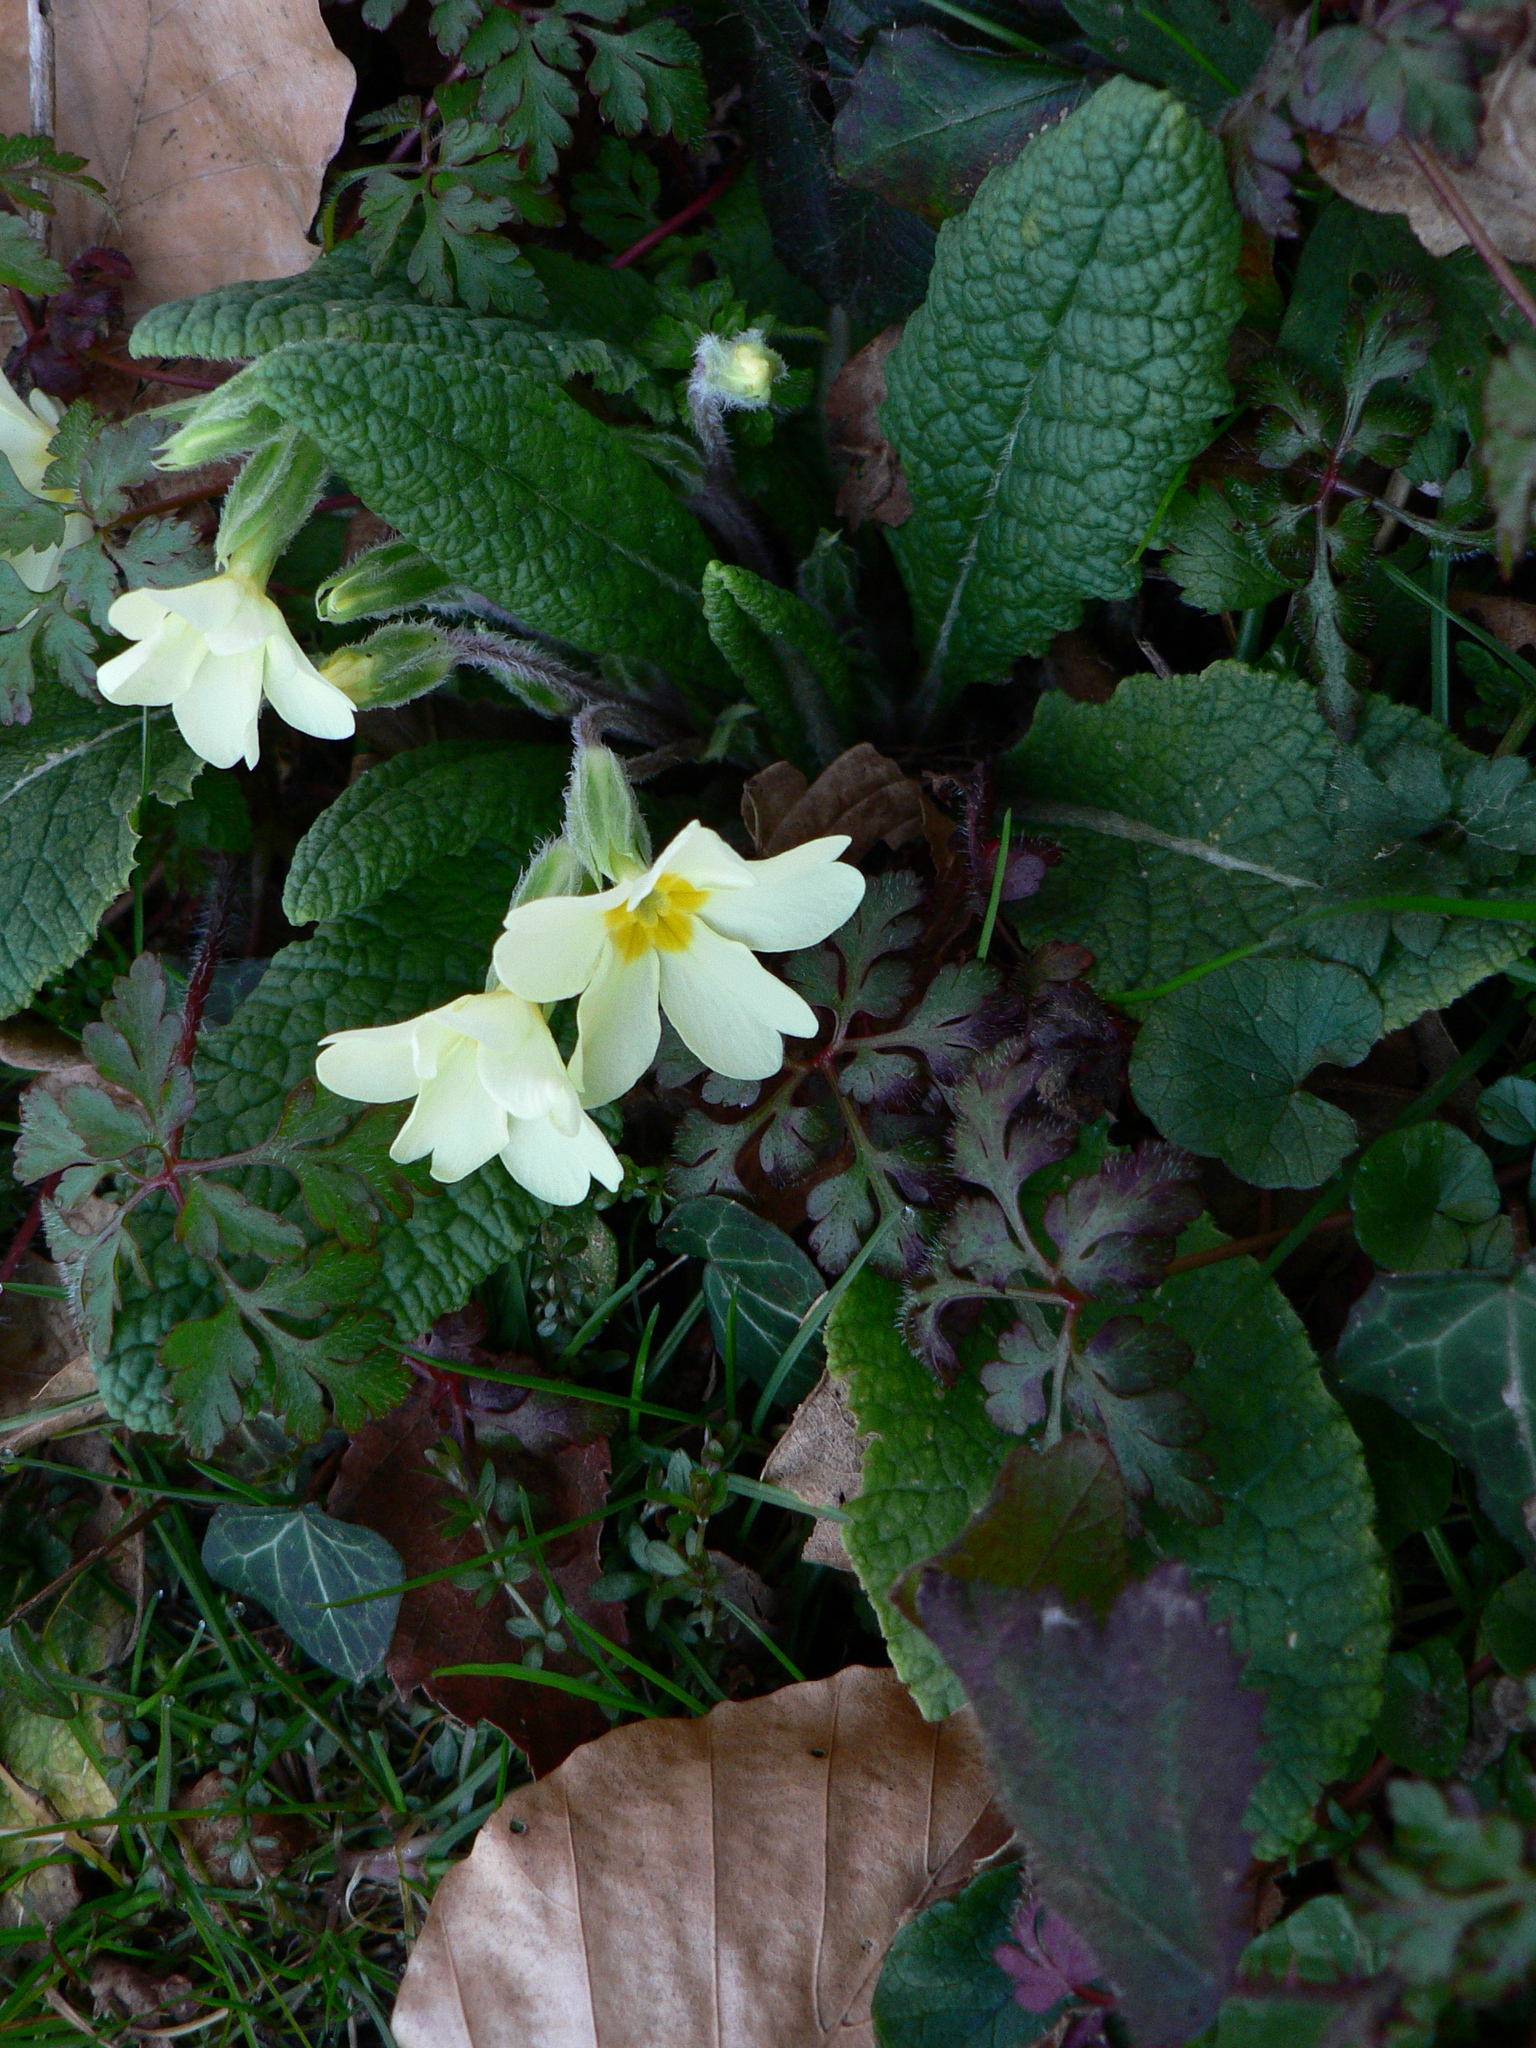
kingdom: Plantae
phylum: Tracheophyta
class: Magnoliopsida
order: Ericales
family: Primulaceae
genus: Primula
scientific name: Primula vulgaris
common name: Primrose
